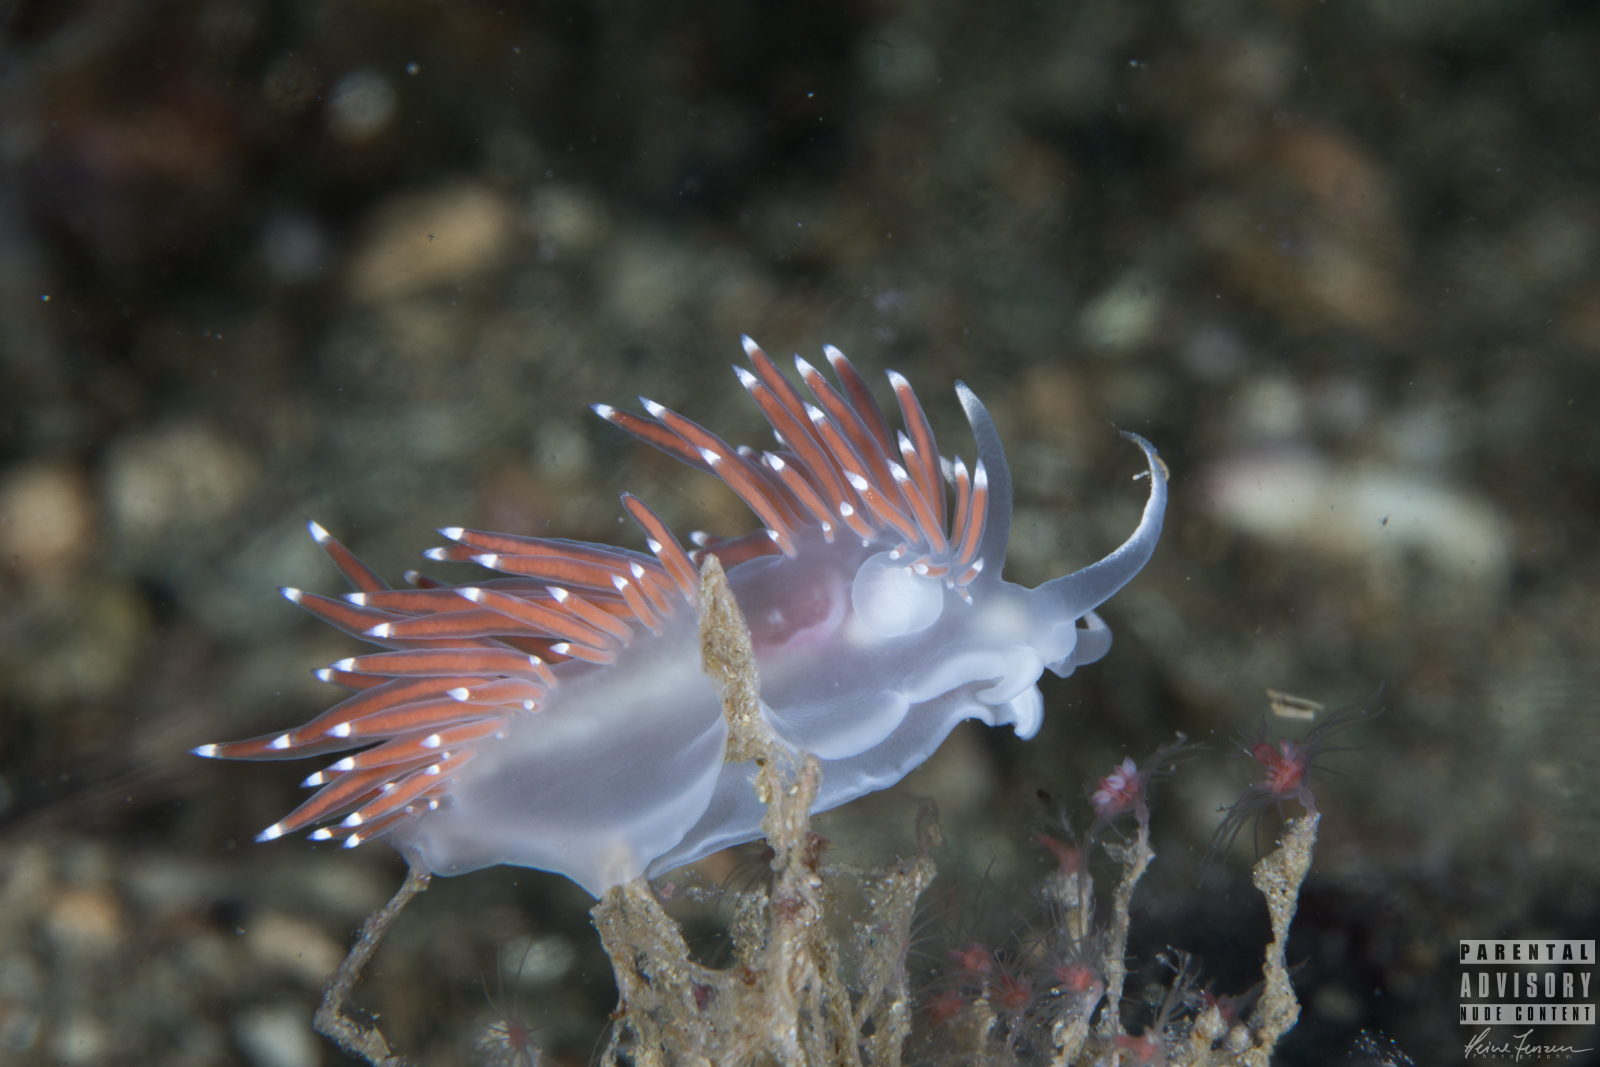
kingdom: Animalia
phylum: Mollusca
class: Gastropoda
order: Nudibranchia
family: Coryphellidae
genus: Coryphella
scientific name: Coryphella browni
